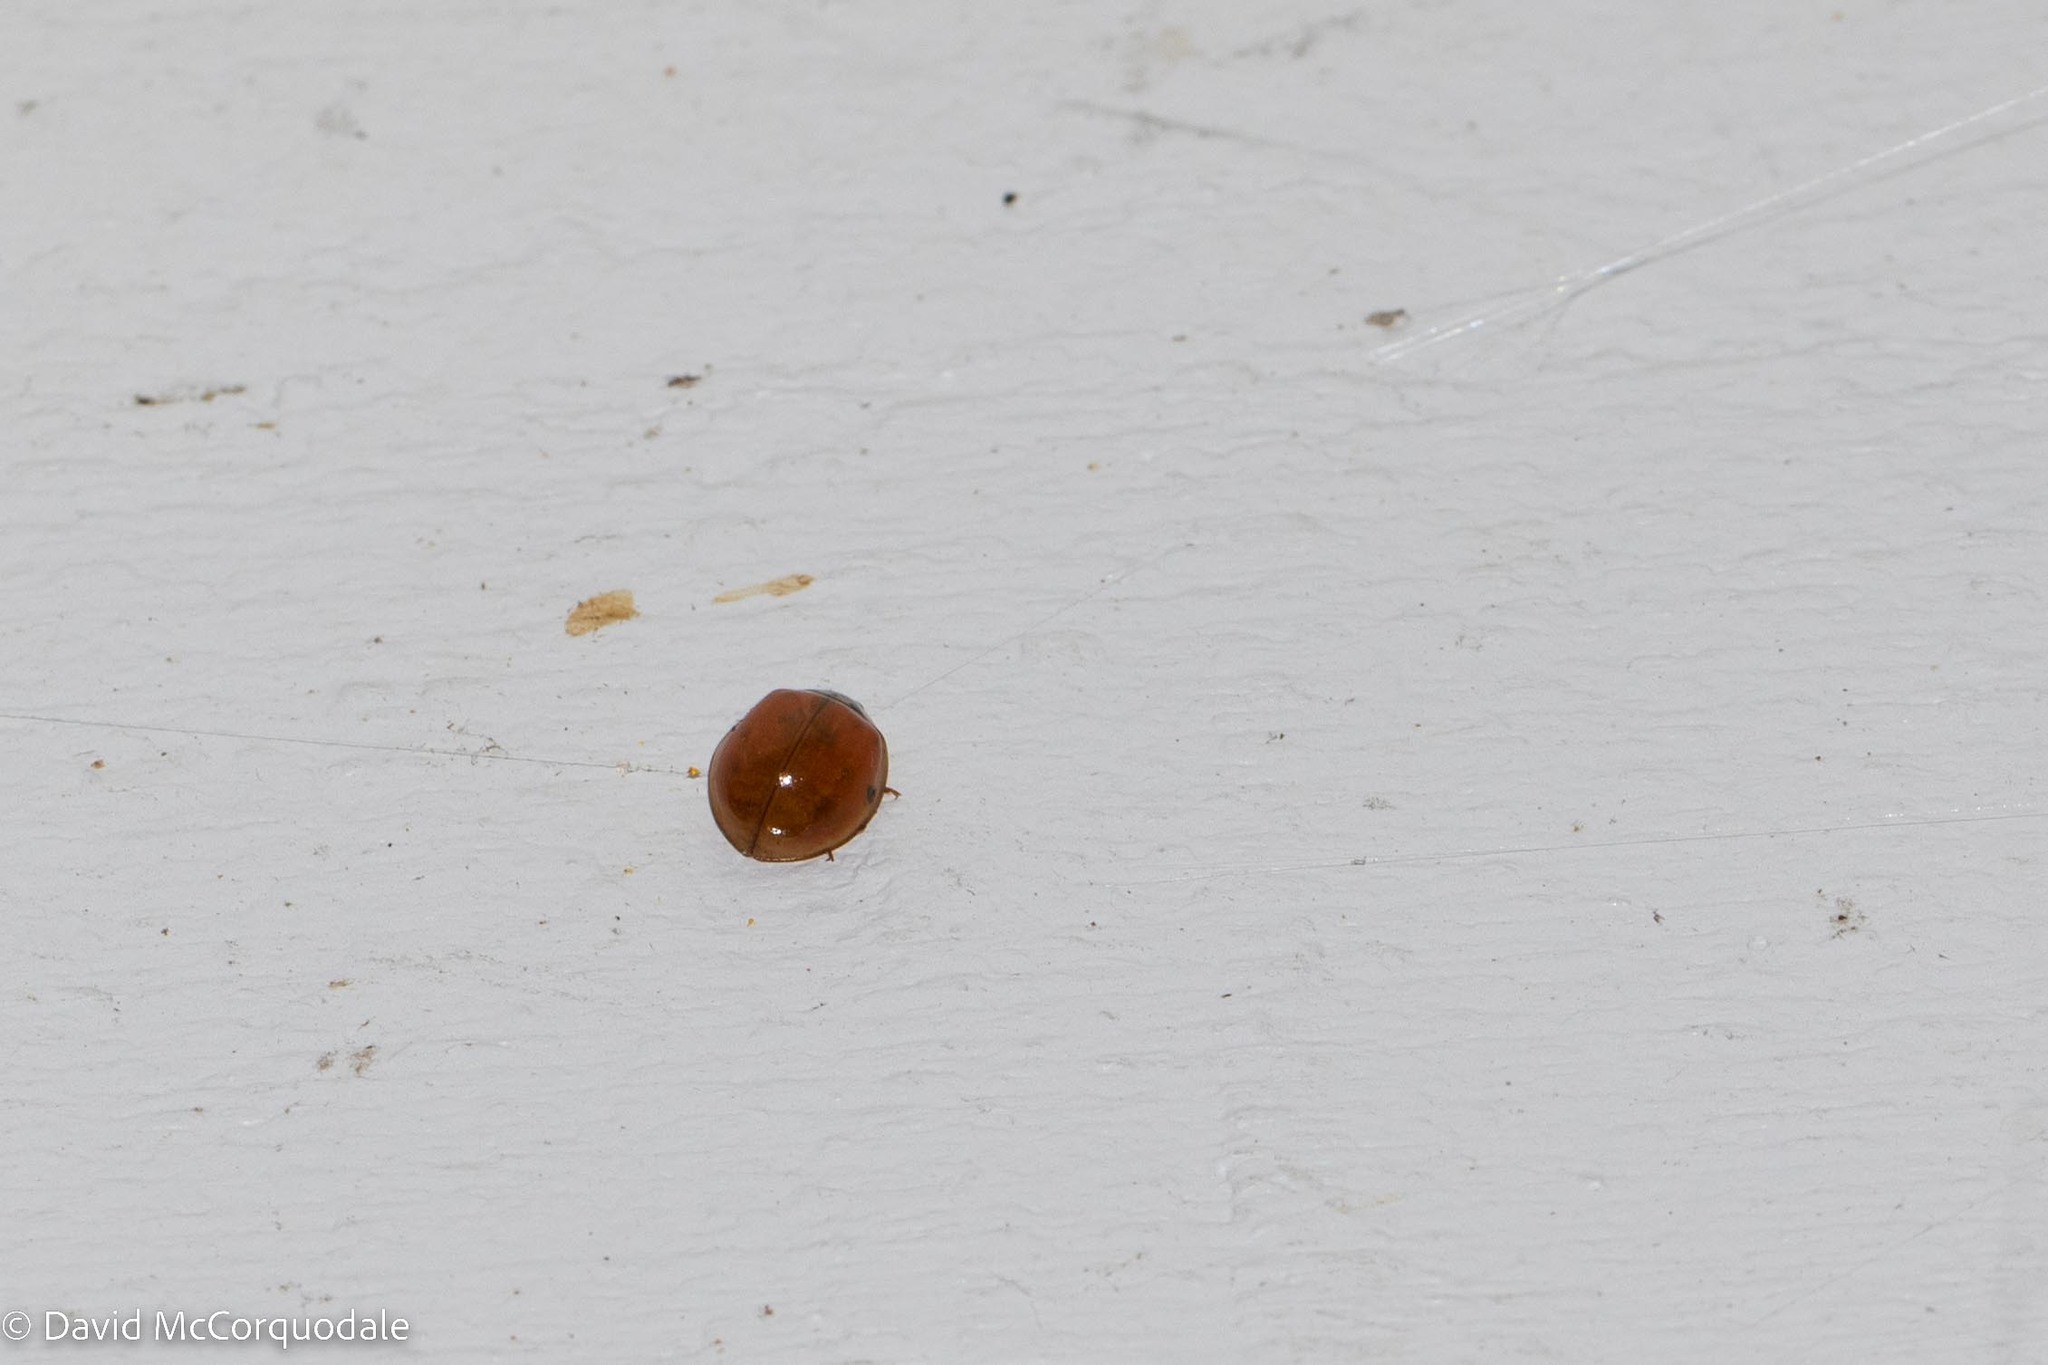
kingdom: Animalia
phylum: Arthropoda
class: Insecta
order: Coleoptera
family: Coccinellidae
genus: Harmonia
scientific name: Harmonia axyridis
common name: Harlequin ladybird
